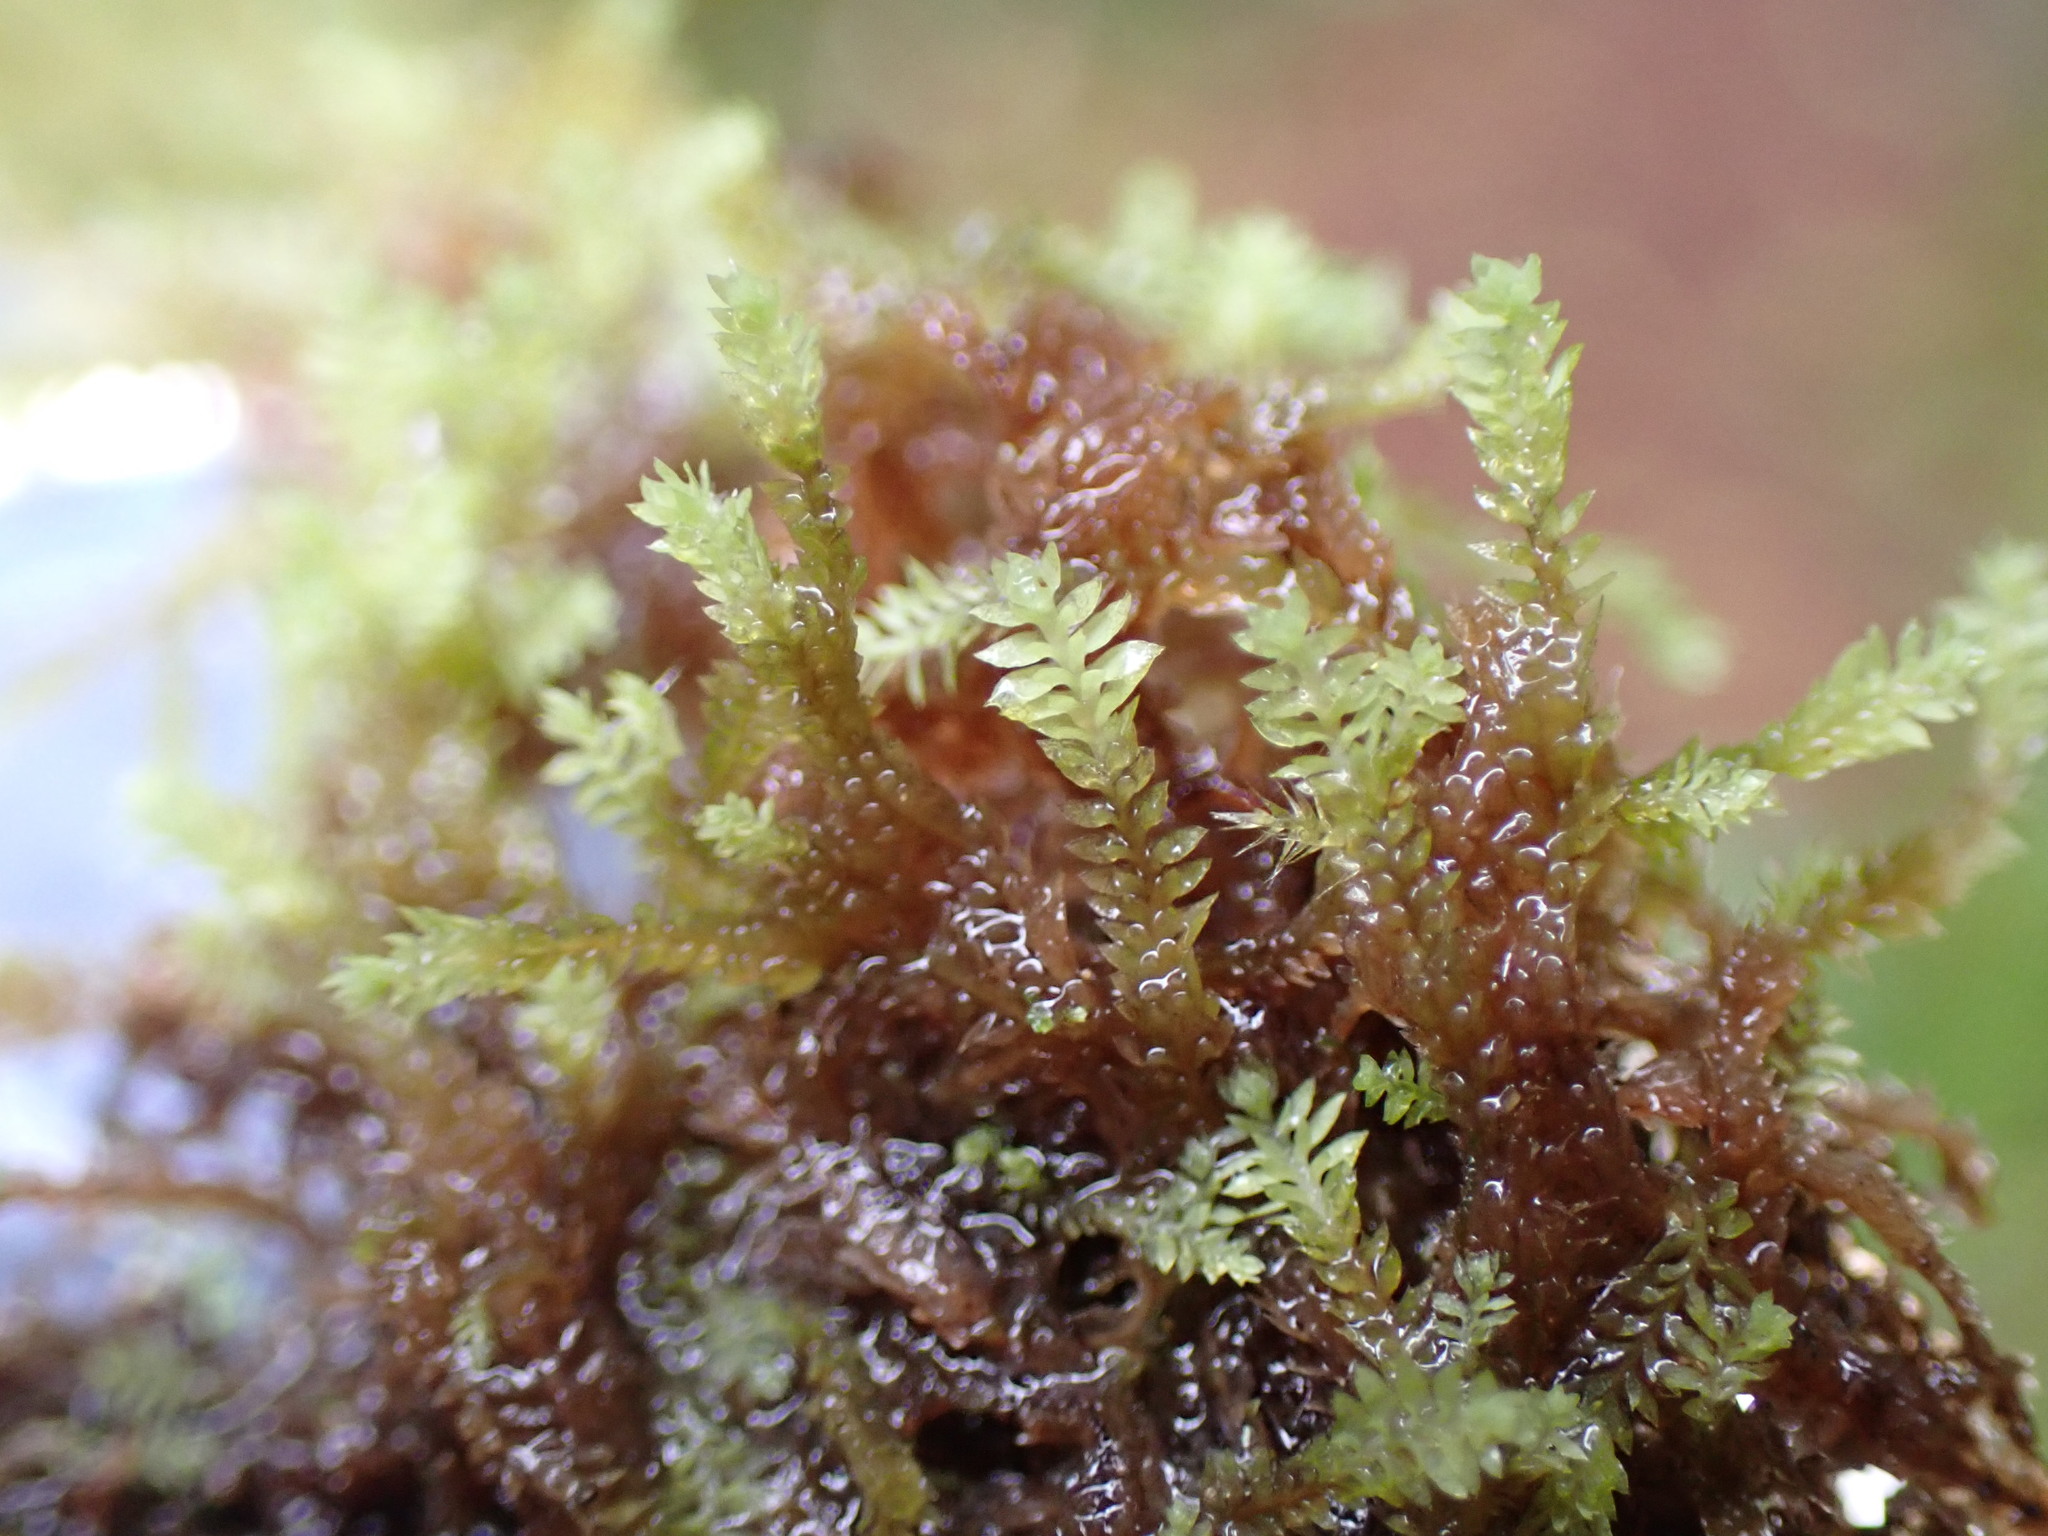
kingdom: Plantae
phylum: Marchantiophyta
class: Jungermanniopsida
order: Jungermanniales
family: Scapaniaceae
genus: Douinia
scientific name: Douinia ovata
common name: Waxy earwort
